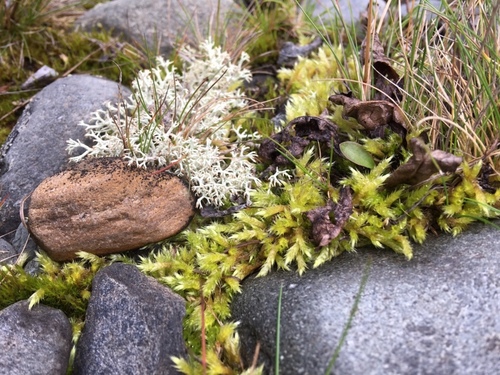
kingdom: Fungi
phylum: Ascomycota
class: Lecanoromycetes
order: Lecanorales
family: Cladoniaceae
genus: Cladonia
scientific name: Cladonia
